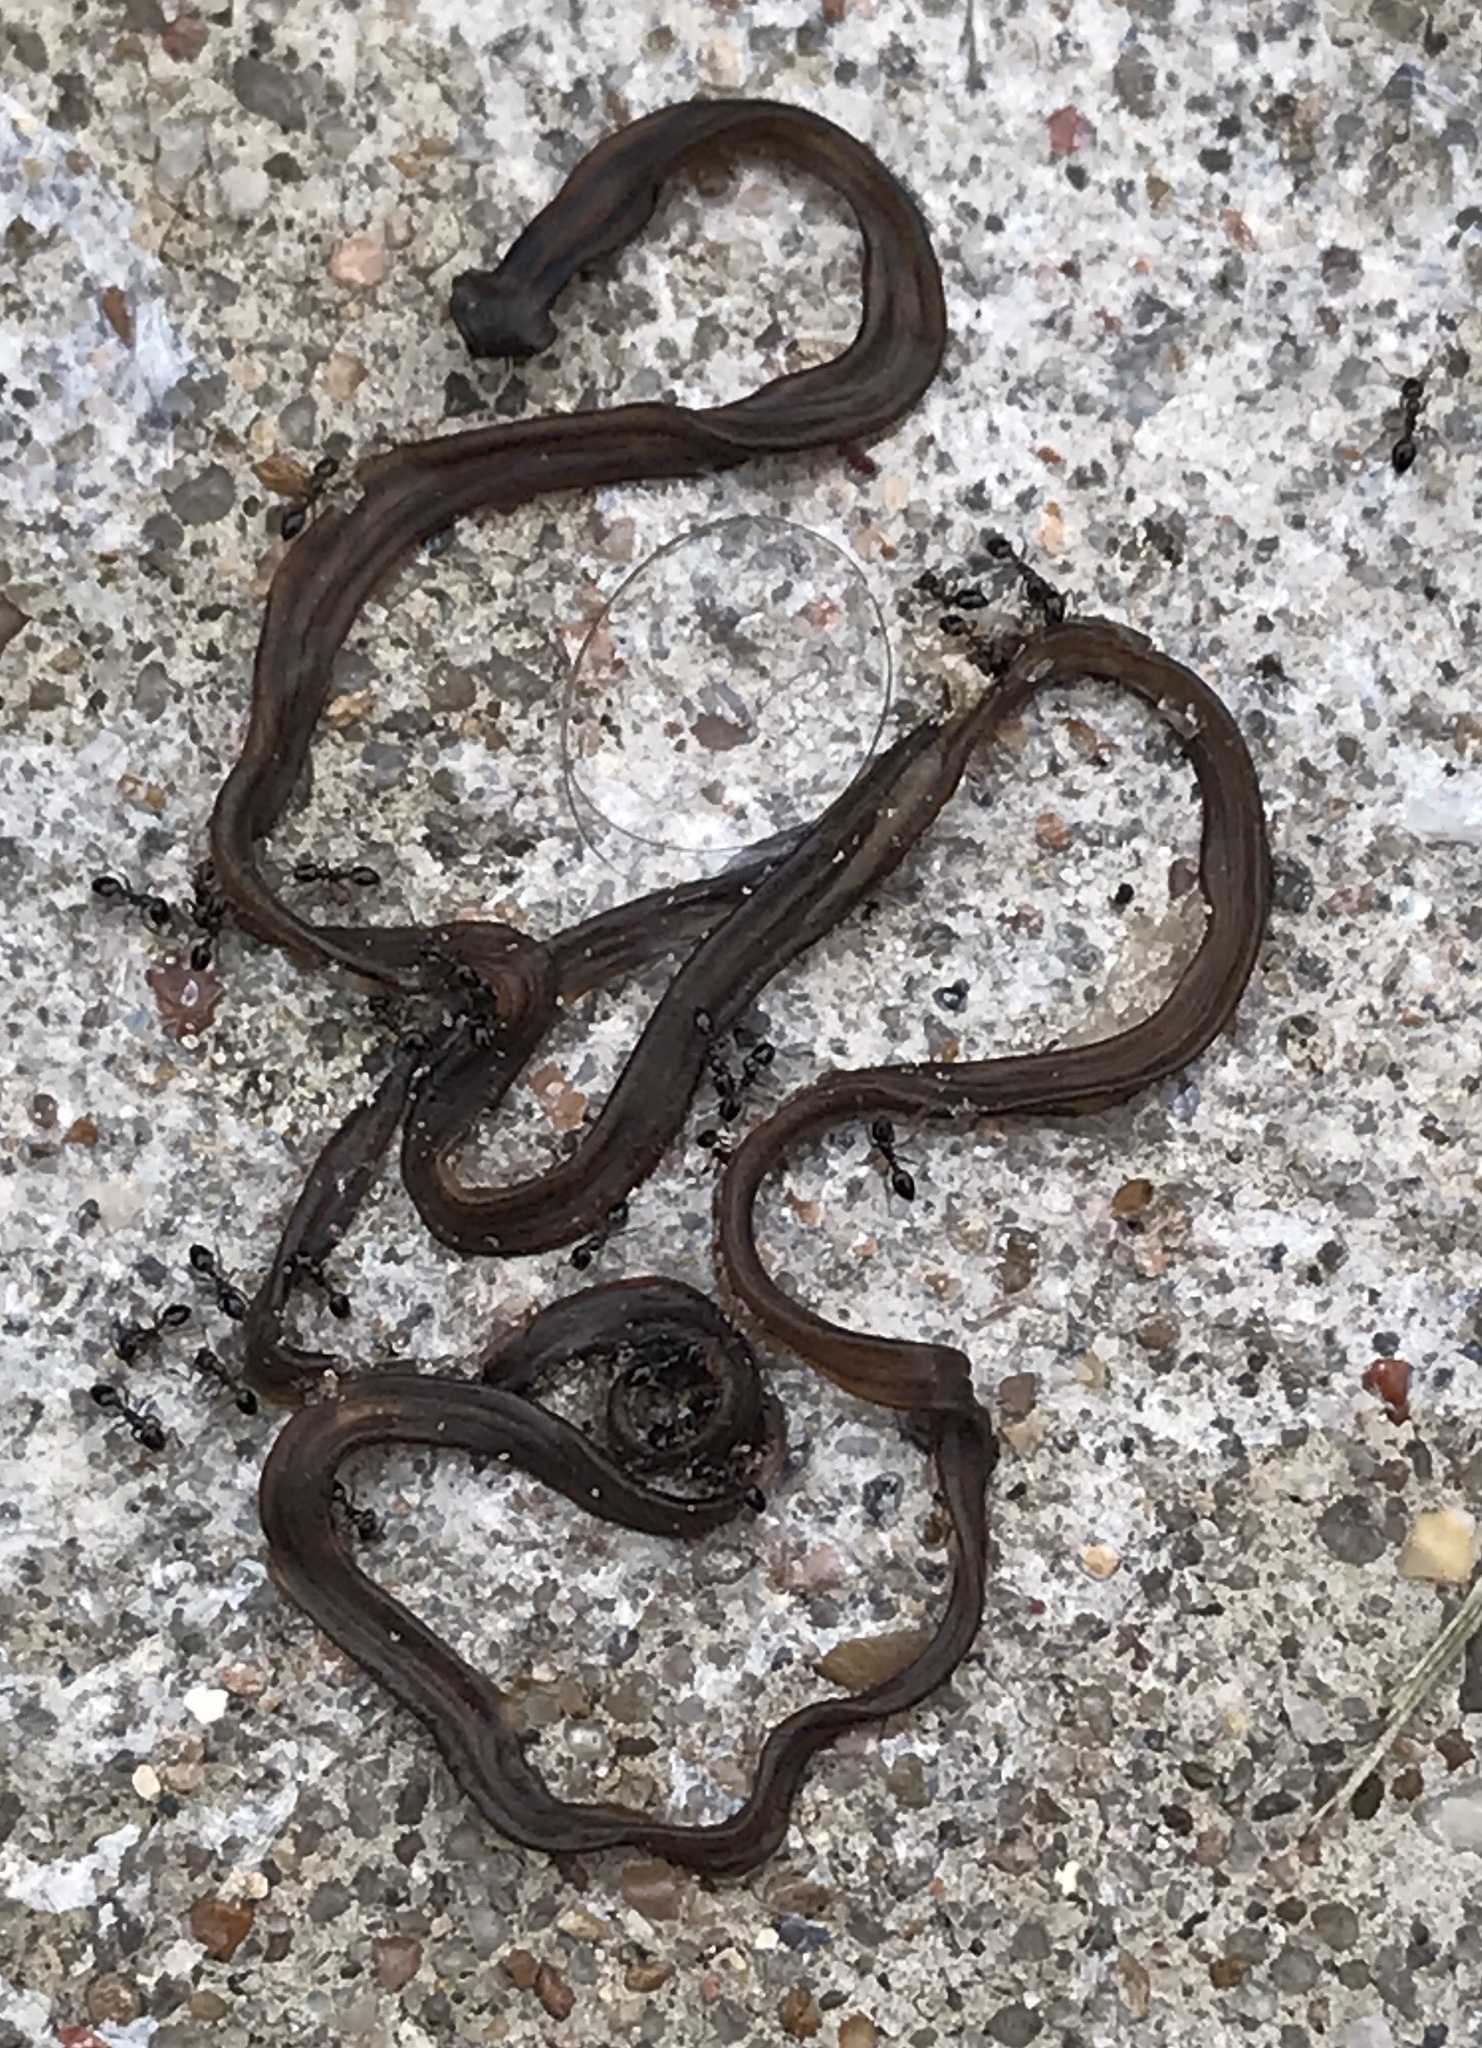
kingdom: Animalia
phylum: Platyhelminthes
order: Tricladida
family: Geoplanidae
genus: Bipalium
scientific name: Bipalium kewense
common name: Hammerhead flatworm
